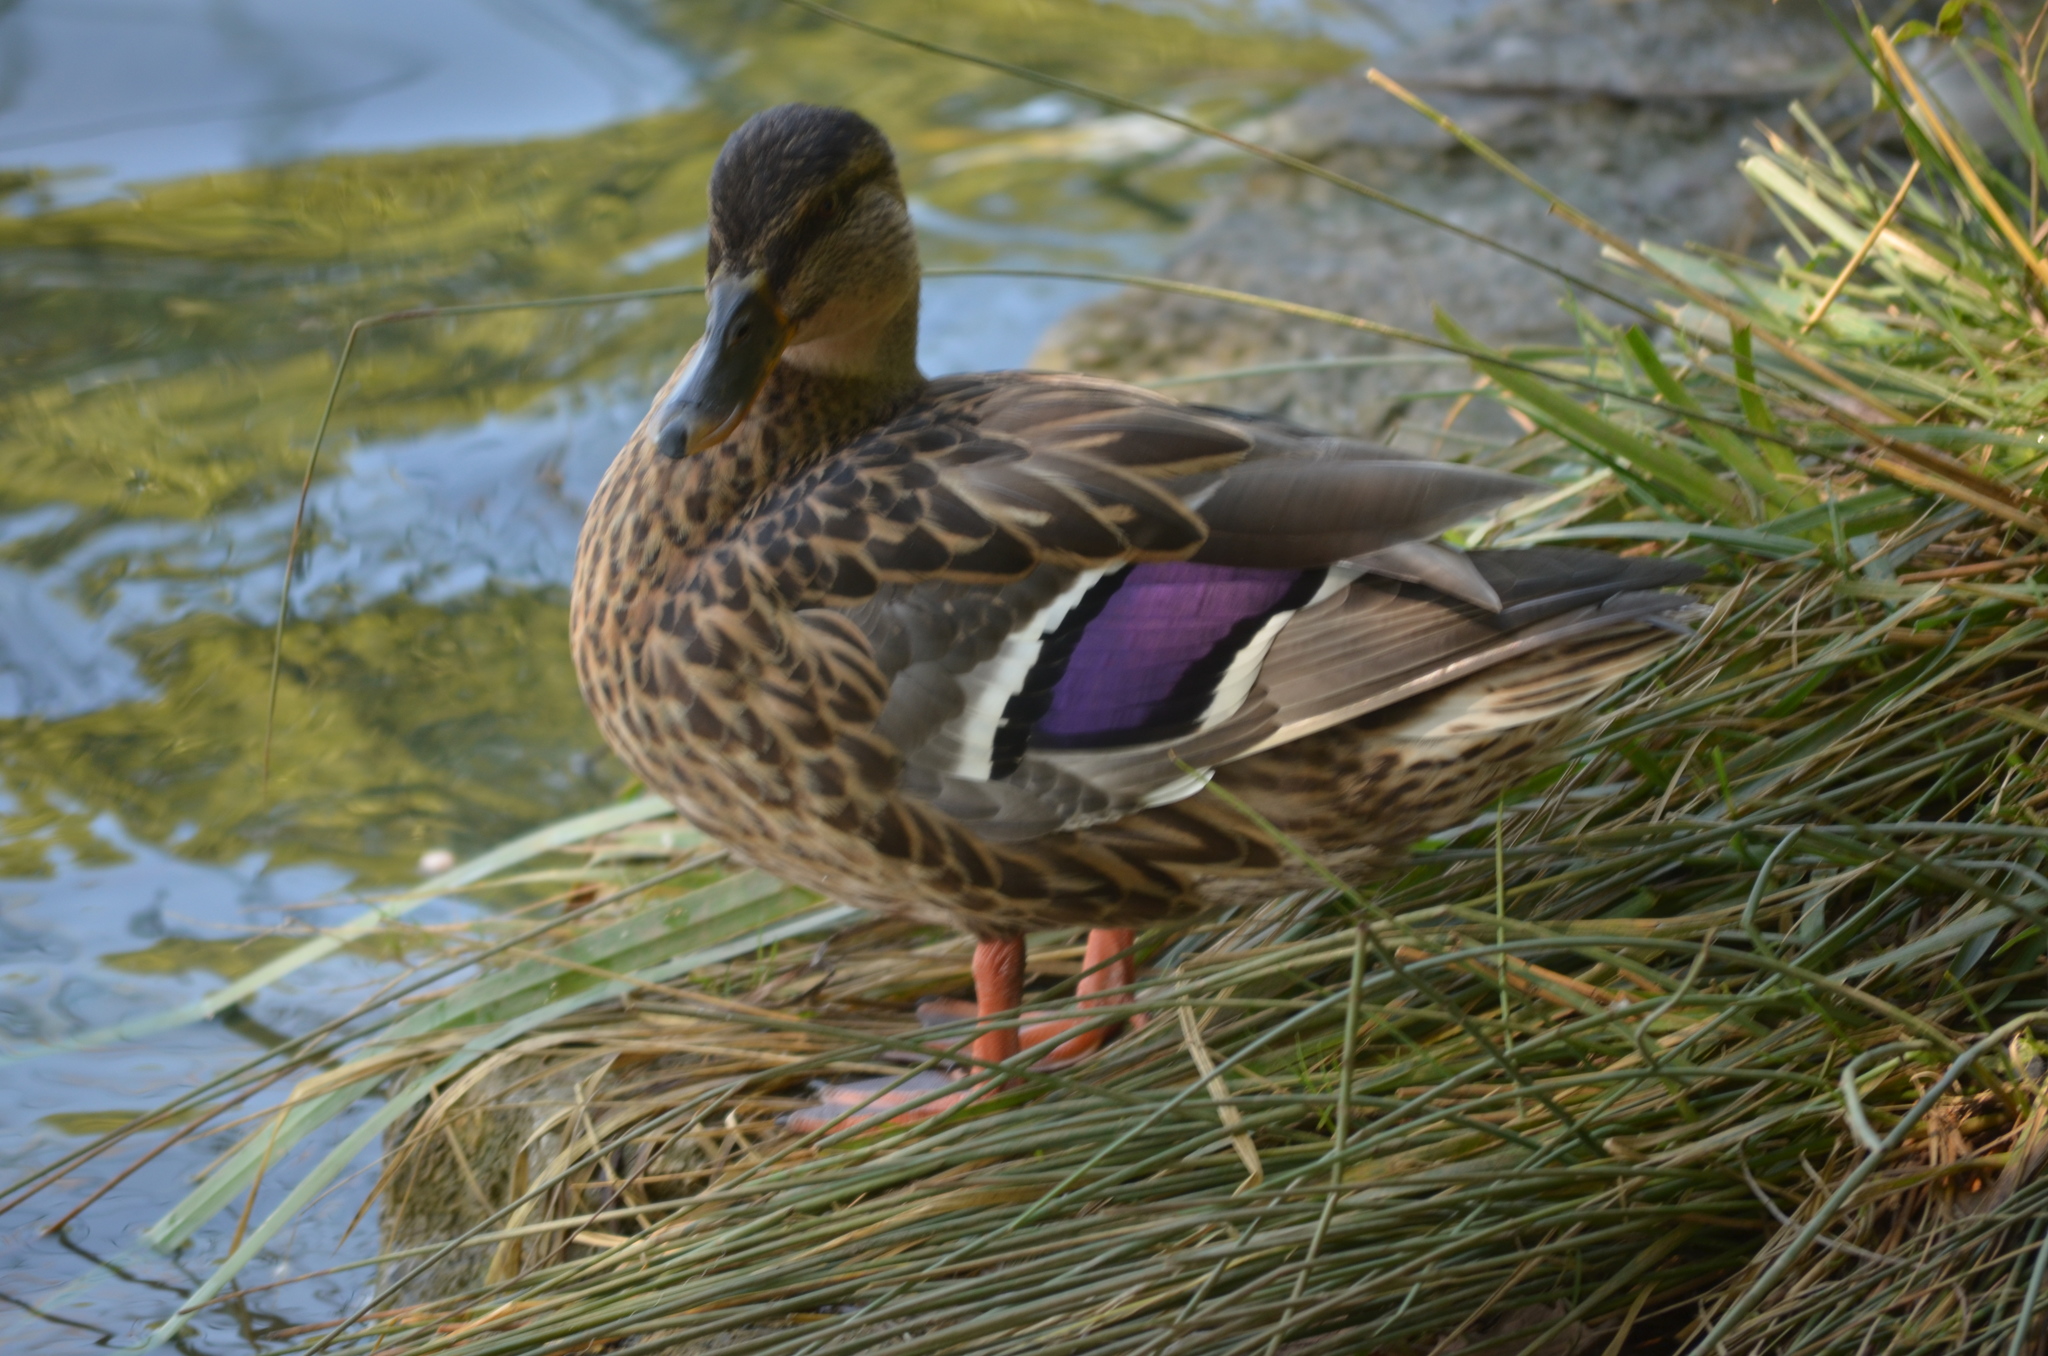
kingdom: Animalia
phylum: Chordata
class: Aves
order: Anseriformes
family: Anatidae
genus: Anas
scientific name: Anas platyrhynchos
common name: Mallard
